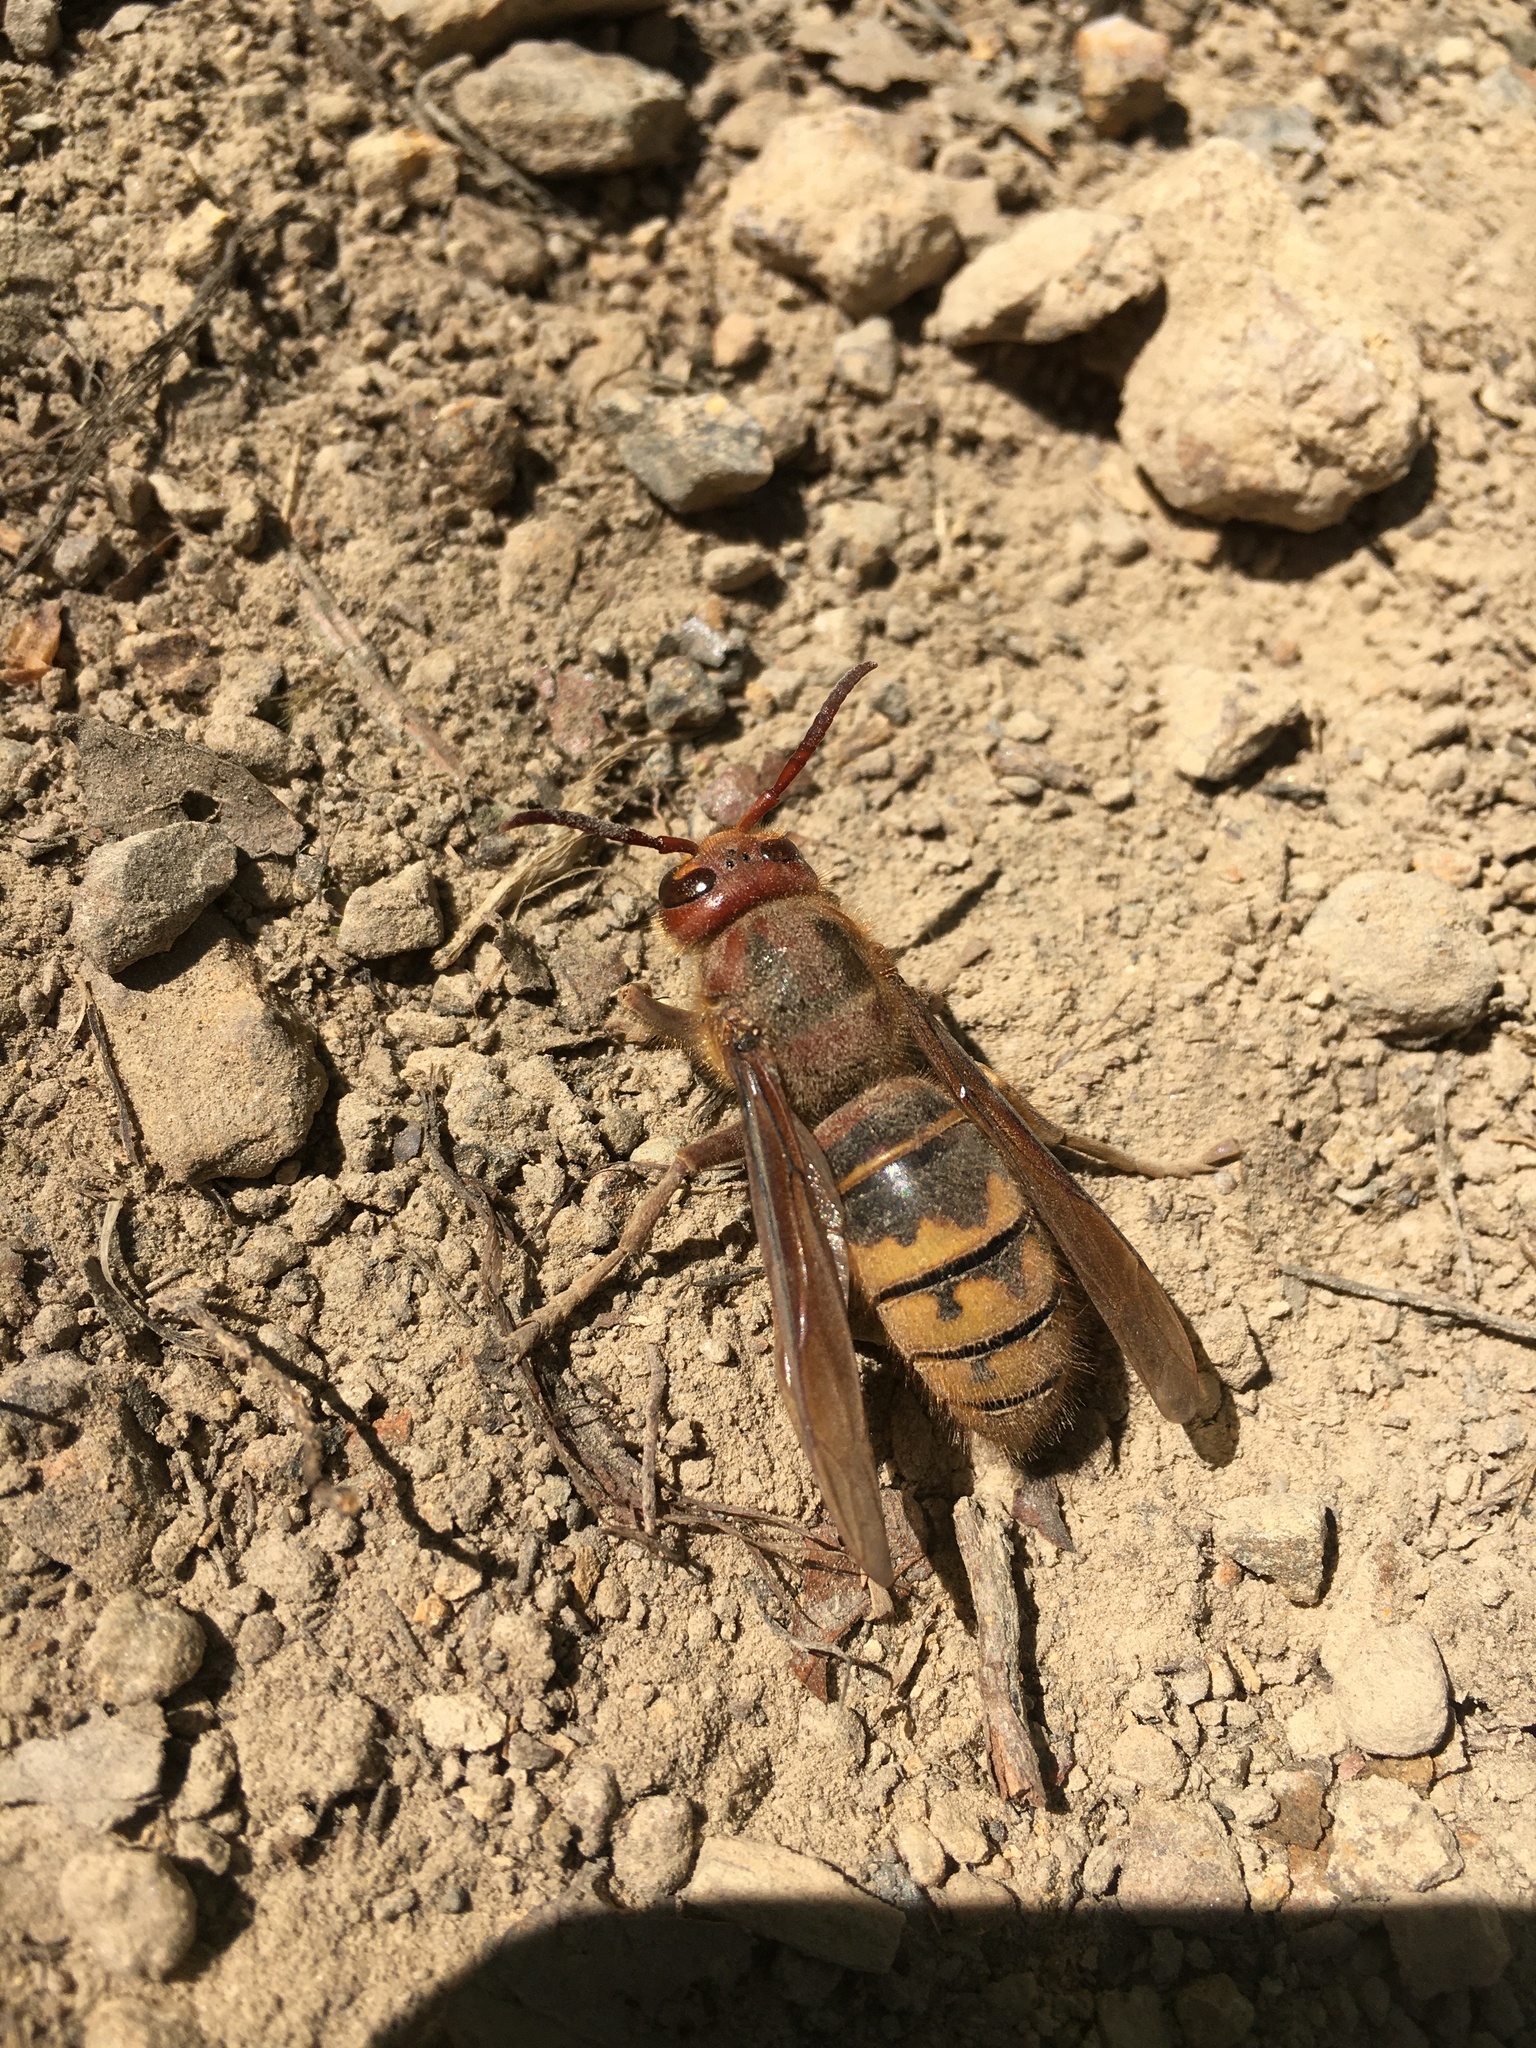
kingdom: Animalia
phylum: Arthropoda
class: Insecta
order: Hymenoptera
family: Vespidae
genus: Vespa
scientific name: Vespa crabro
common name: Hornet
